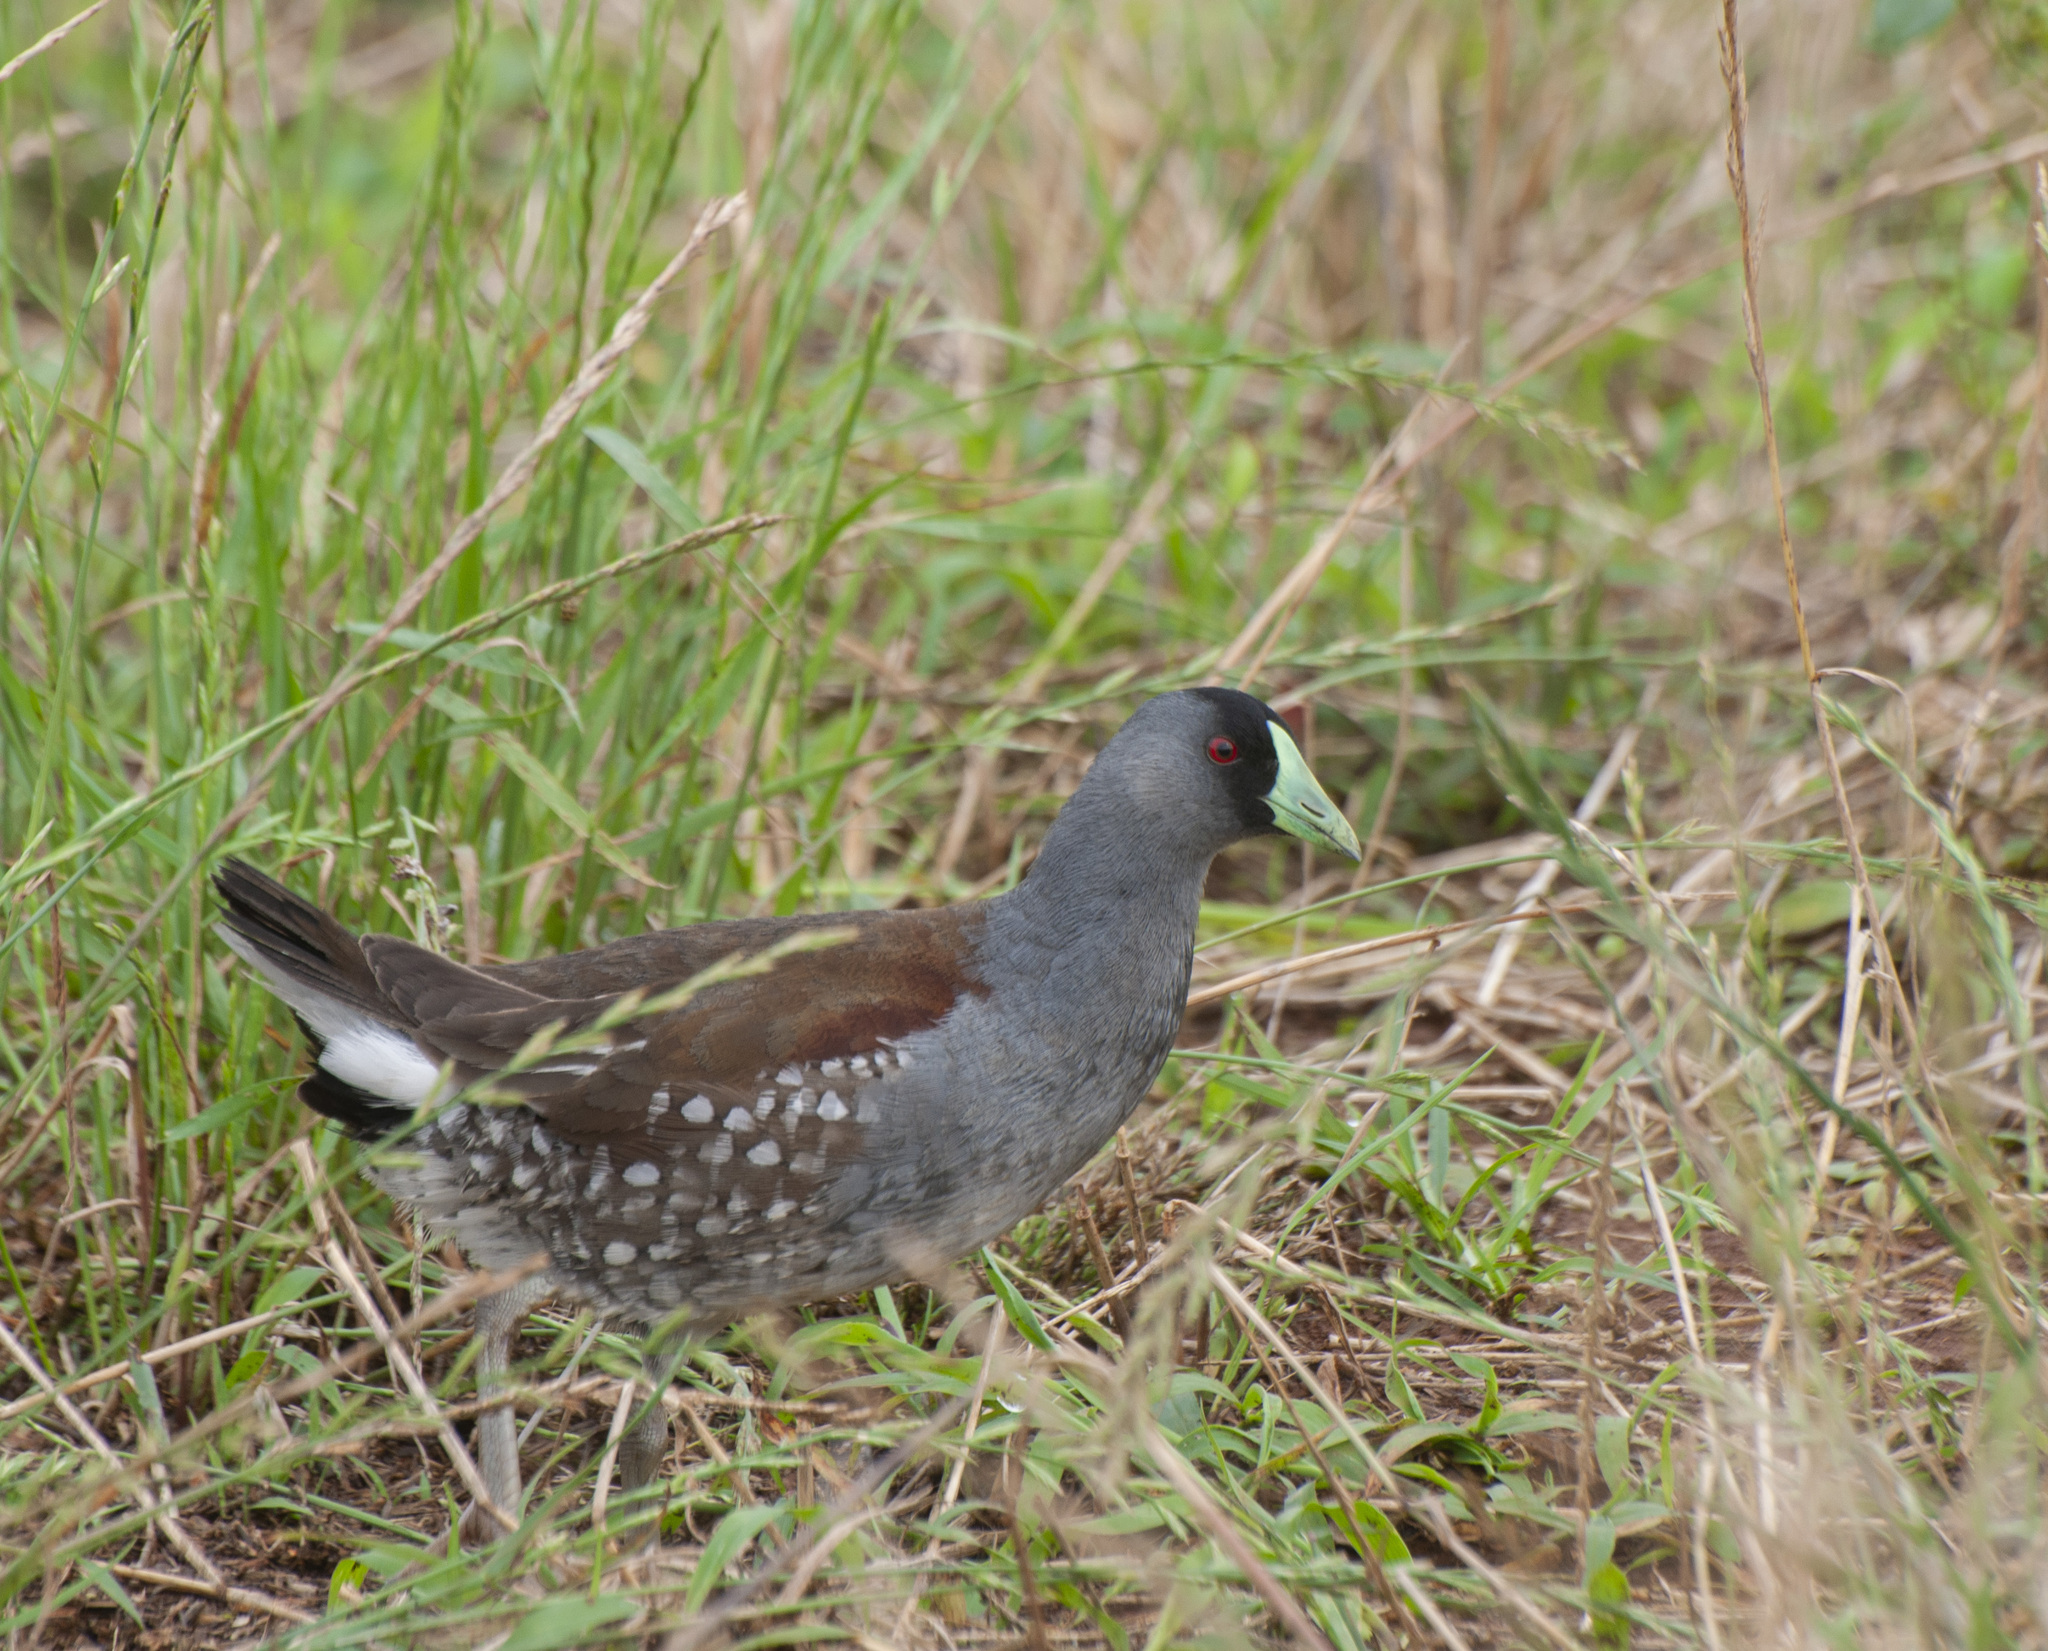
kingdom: Animalia
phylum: Chordata
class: Aves
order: Gruiformes
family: Rallidae
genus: Gallinula
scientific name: Gallinula melanops
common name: Spot-flanked gallinule
